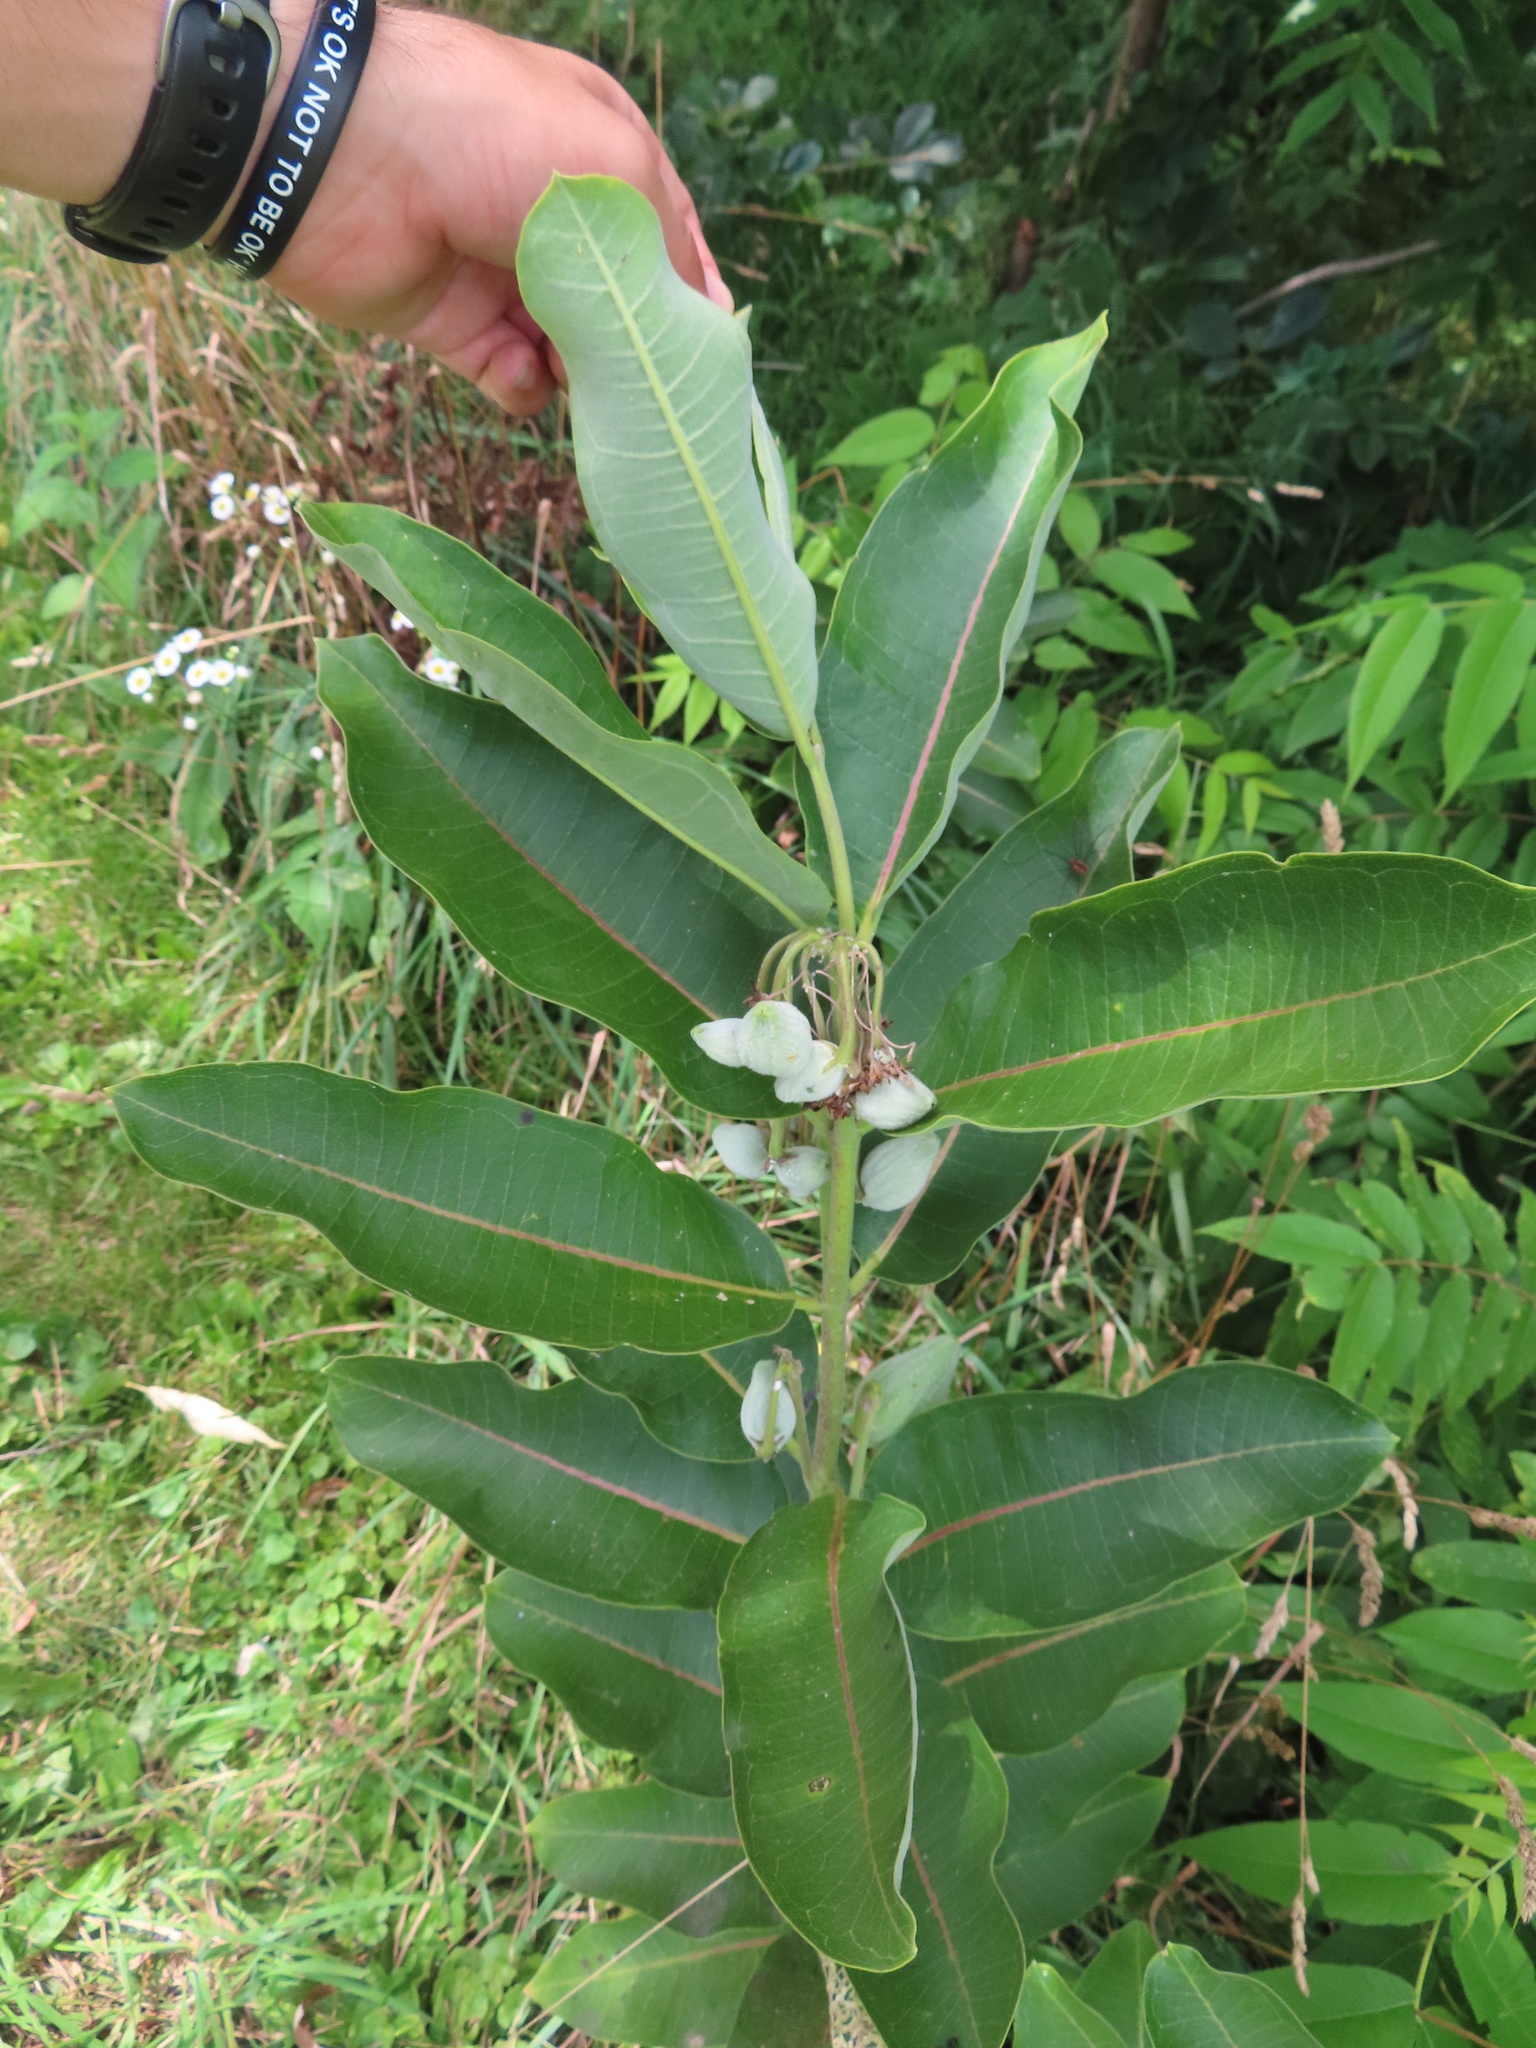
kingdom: Plantae
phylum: Tracheophyta
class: Magnoliopsida
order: Gentianales
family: Apocynaceae
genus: Asclepias
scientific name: Asclepias syriaca
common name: Common milkweed
